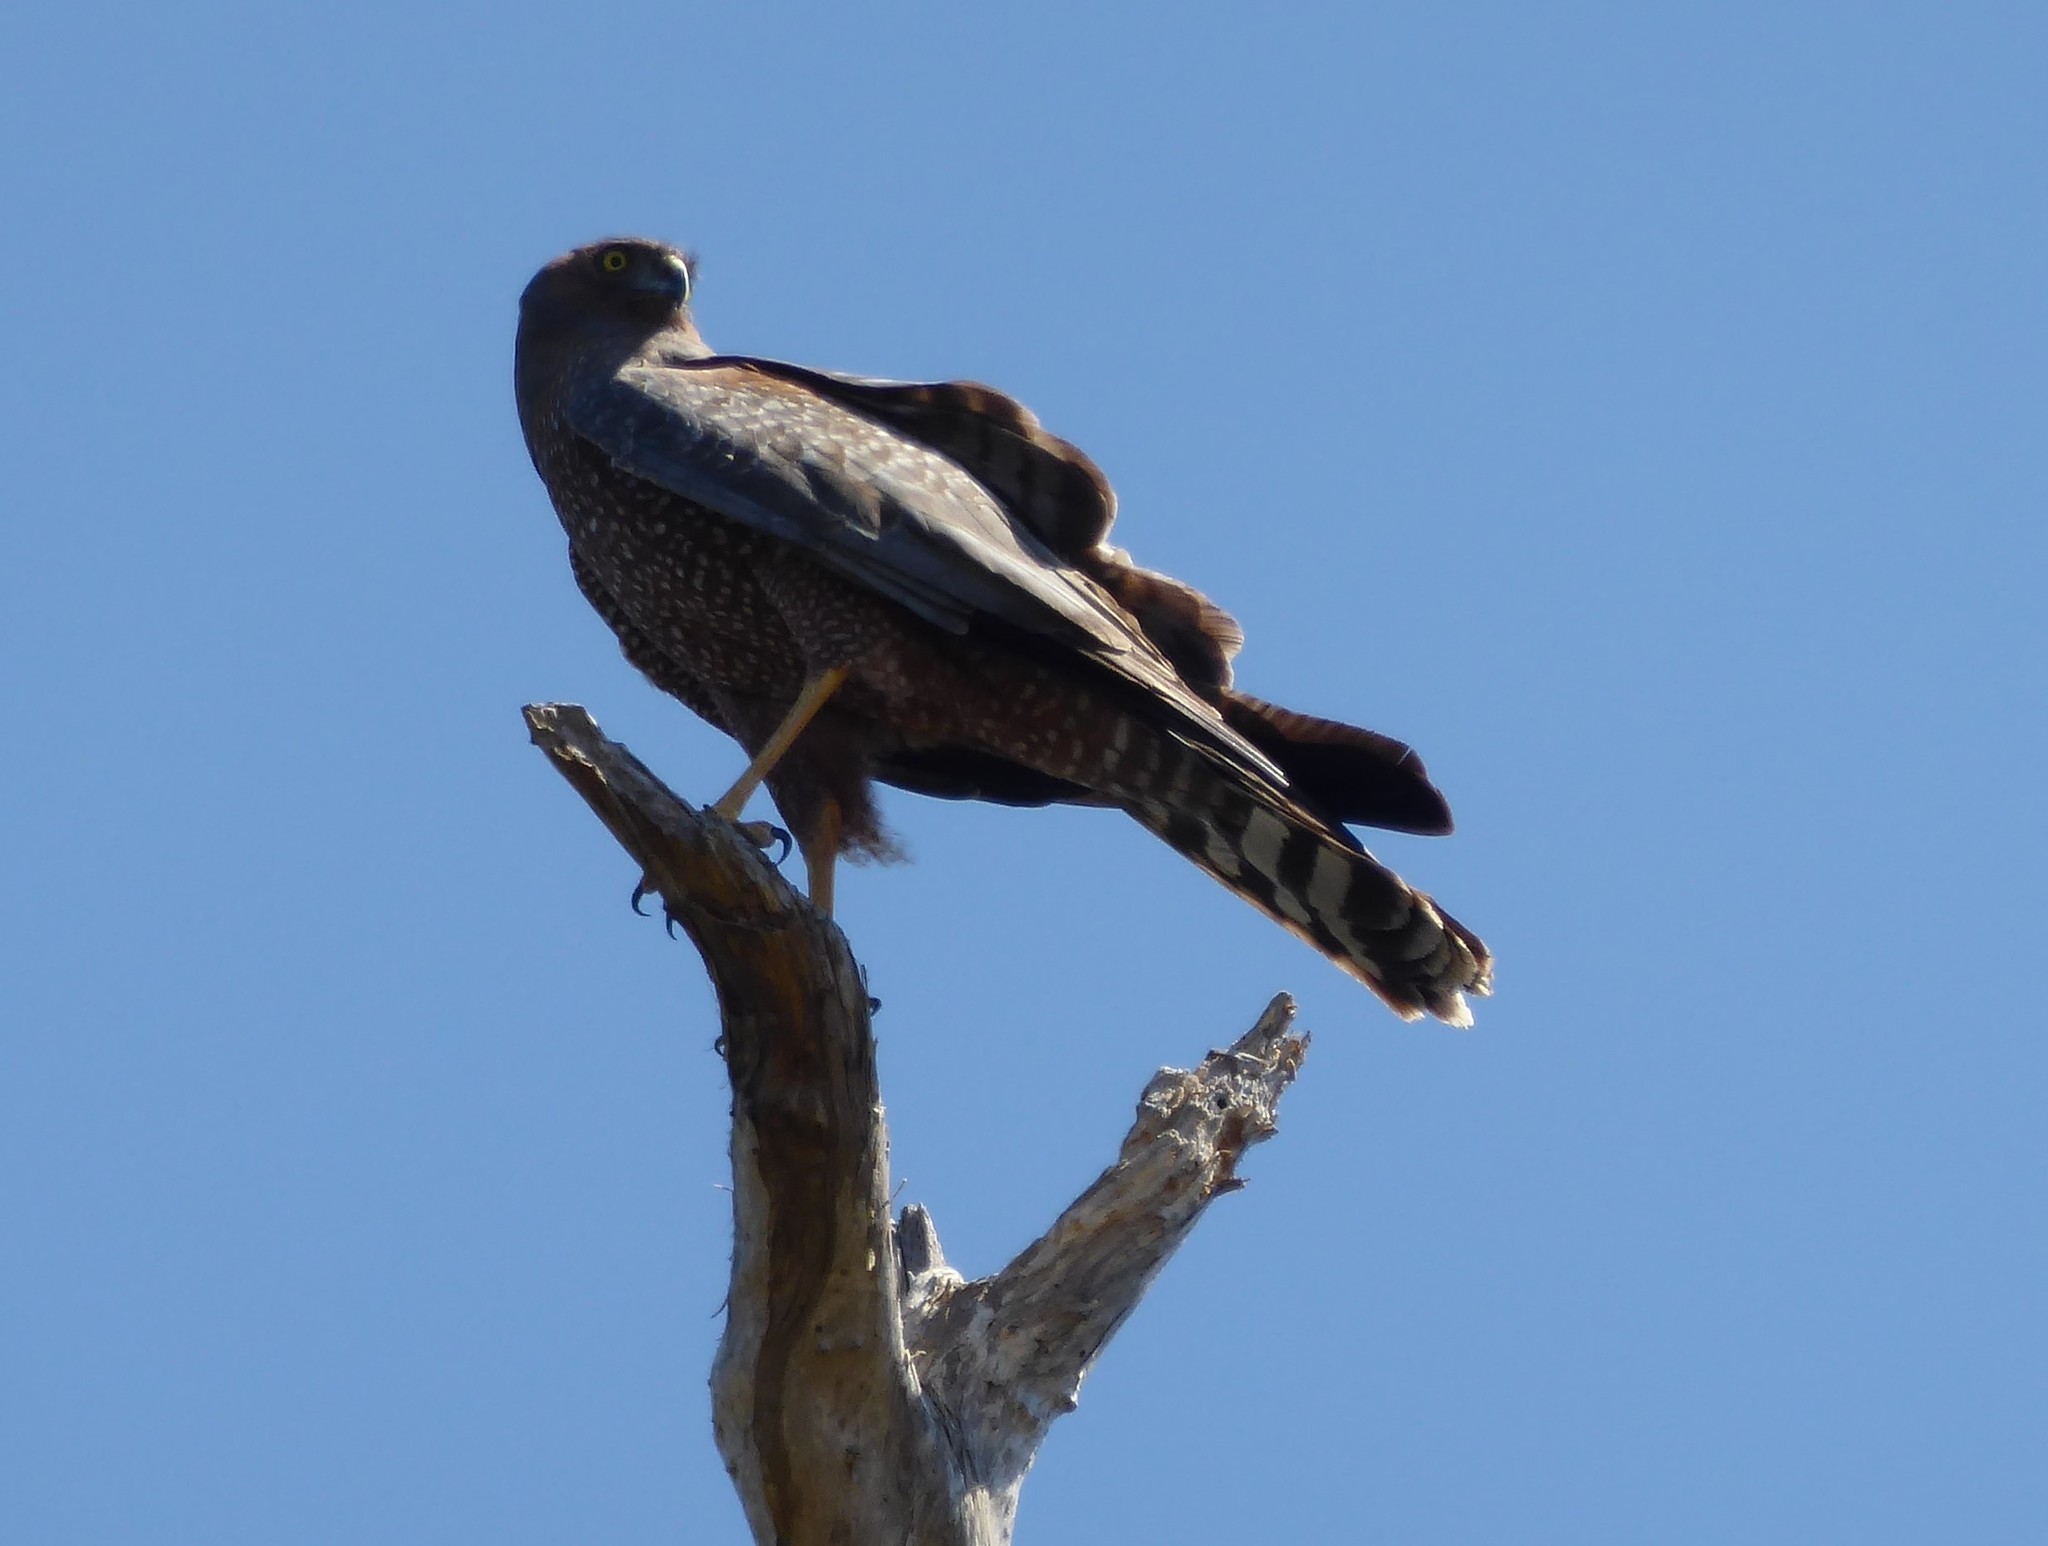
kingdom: Animalia
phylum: Chordata
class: Aves
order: Accipitriformes
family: Accipitridae
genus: Circus
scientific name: Circus assimilis
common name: Spotted harrier
